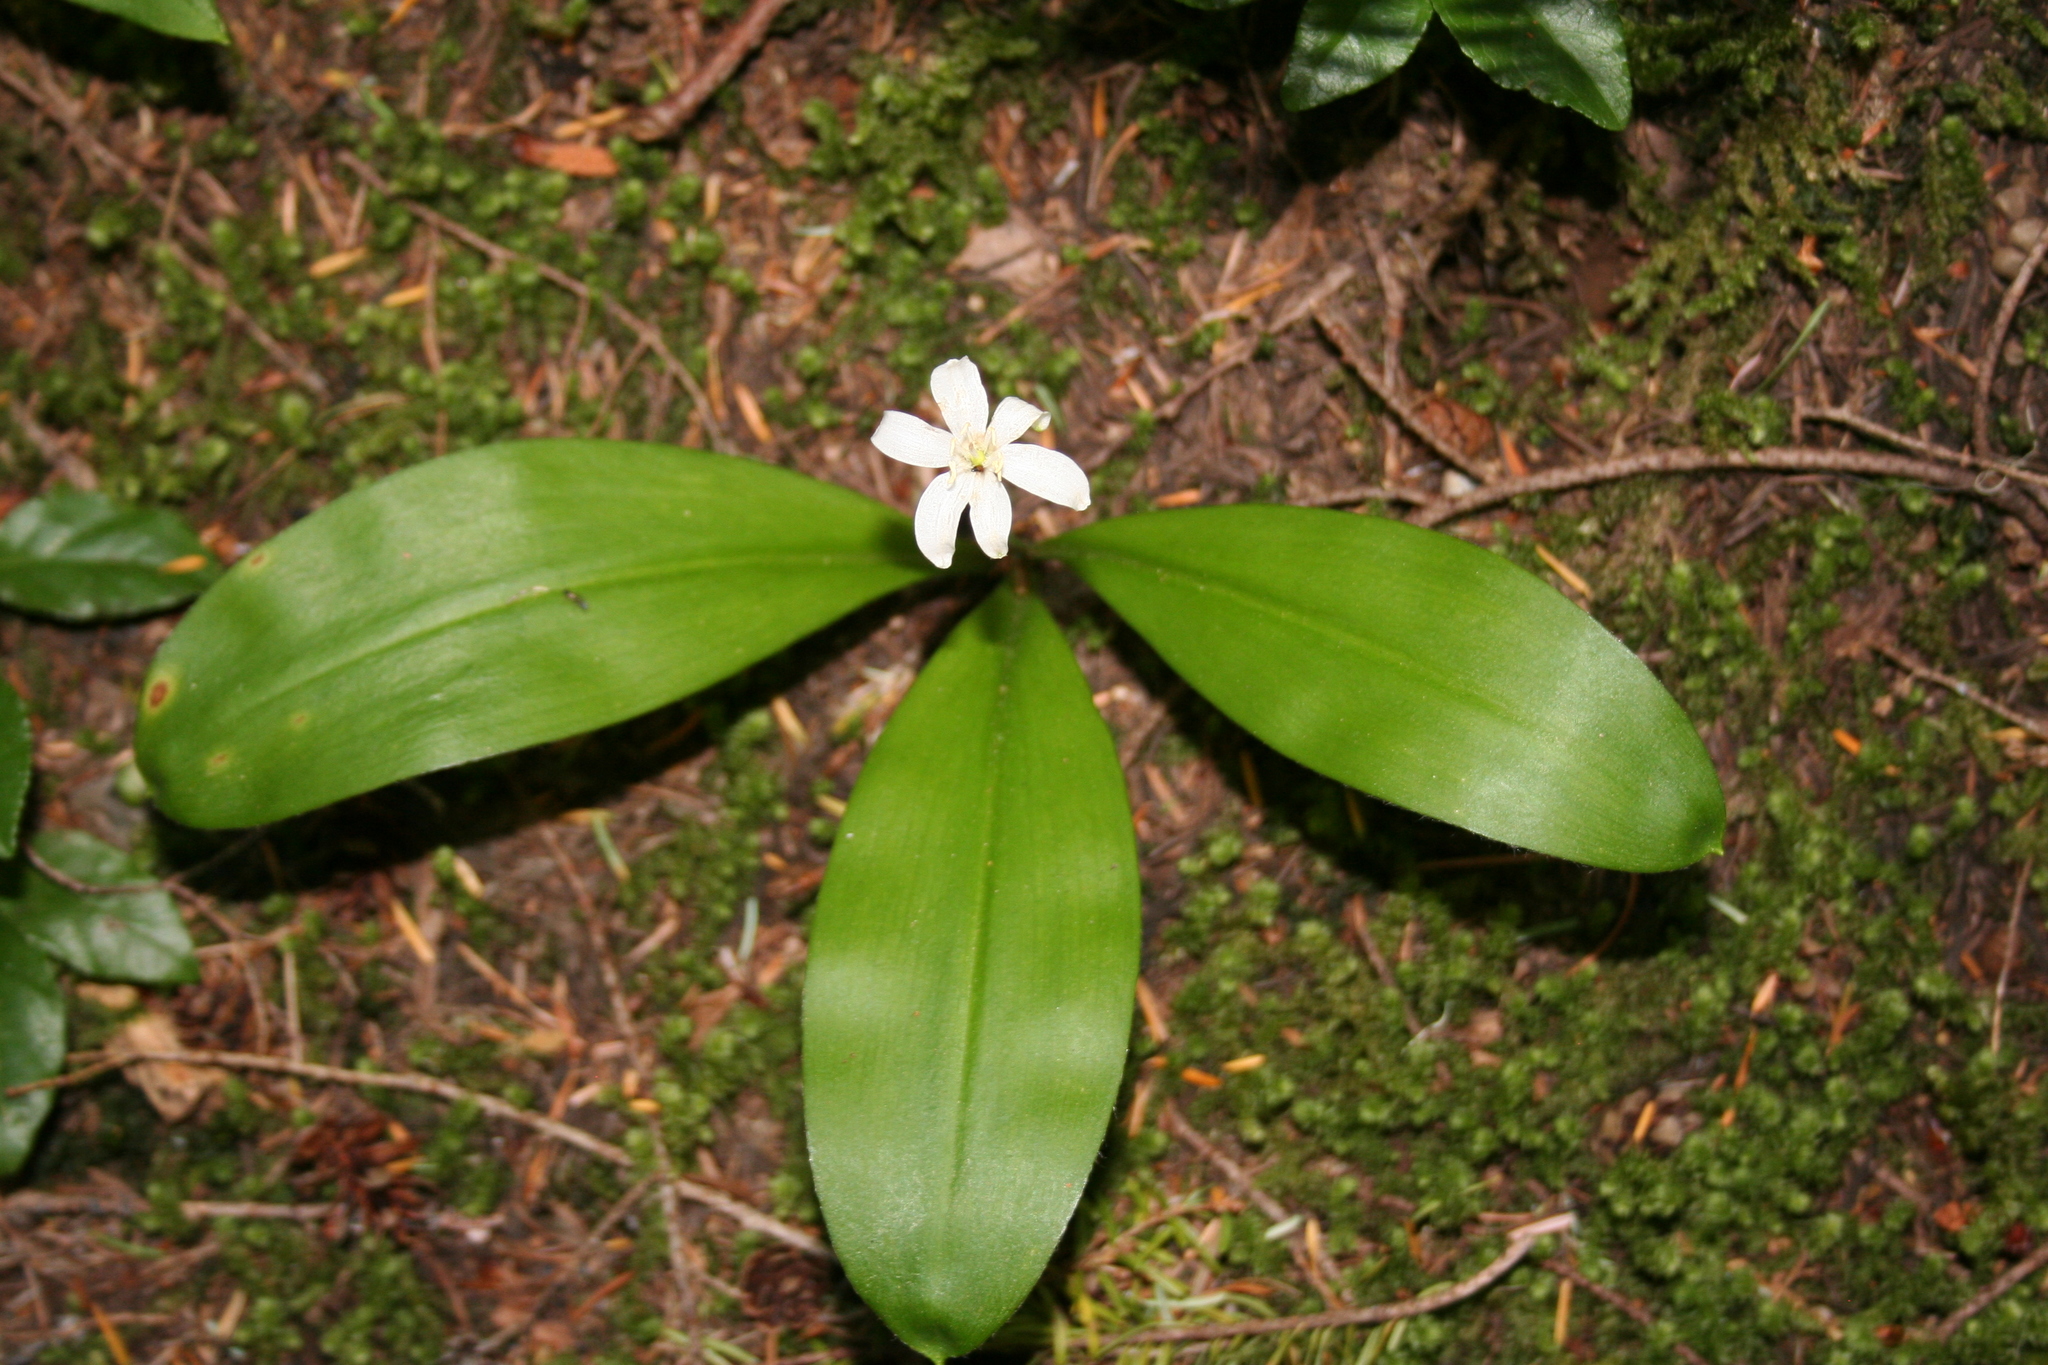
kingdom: Plantae
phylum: Tracheophyta
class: Liliopsida
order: Liliales
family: Liliaceae
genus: Clintonia
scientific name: Clintonia uniflora
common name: Queen's cup
